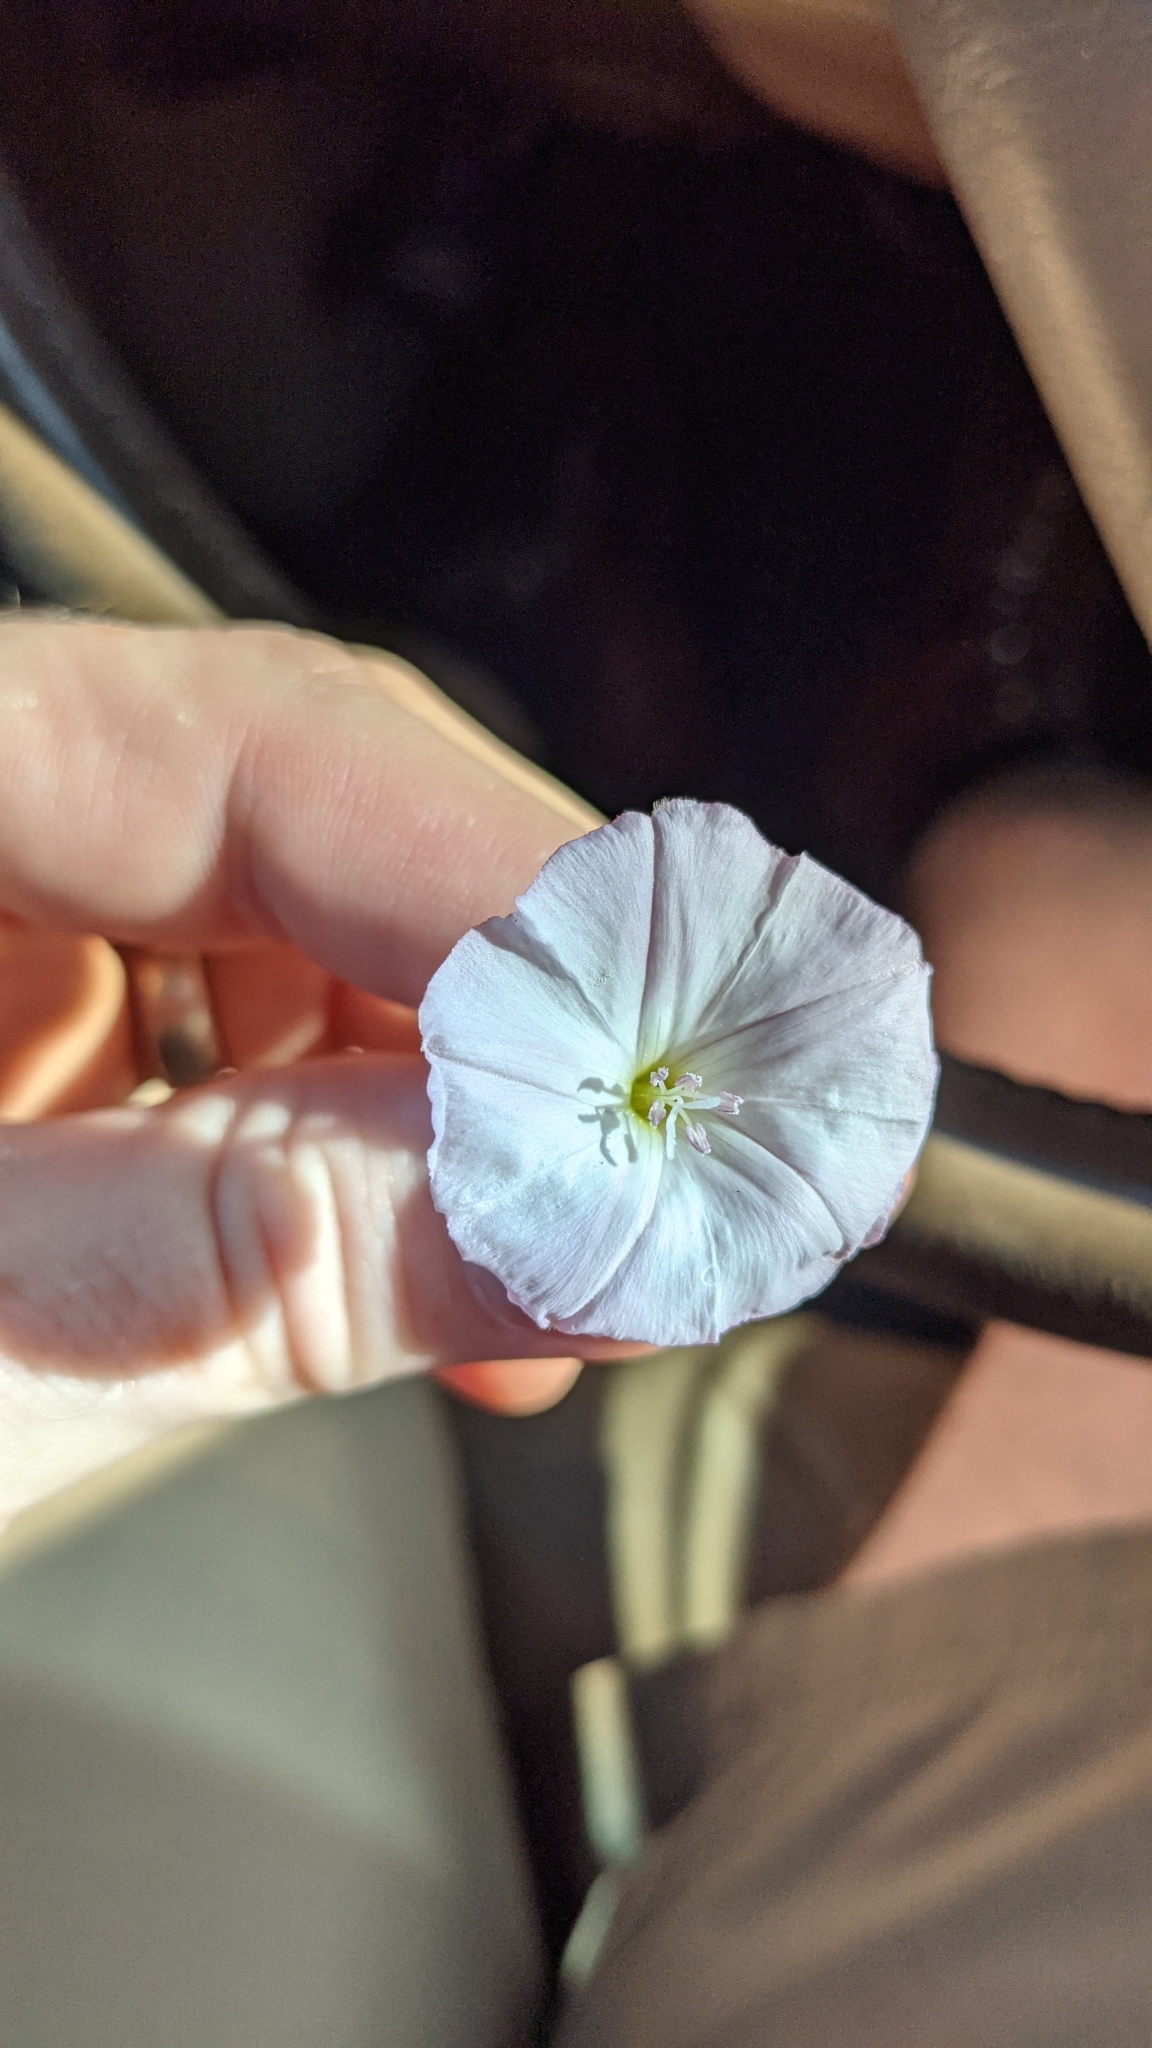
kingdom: Plantae
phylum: Tracheophyta
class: Magnoliopsida
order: Solanales
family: Convolvulaceae
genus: Convolvulus
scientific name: Convolvulus arvensis
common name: Field bindweed
